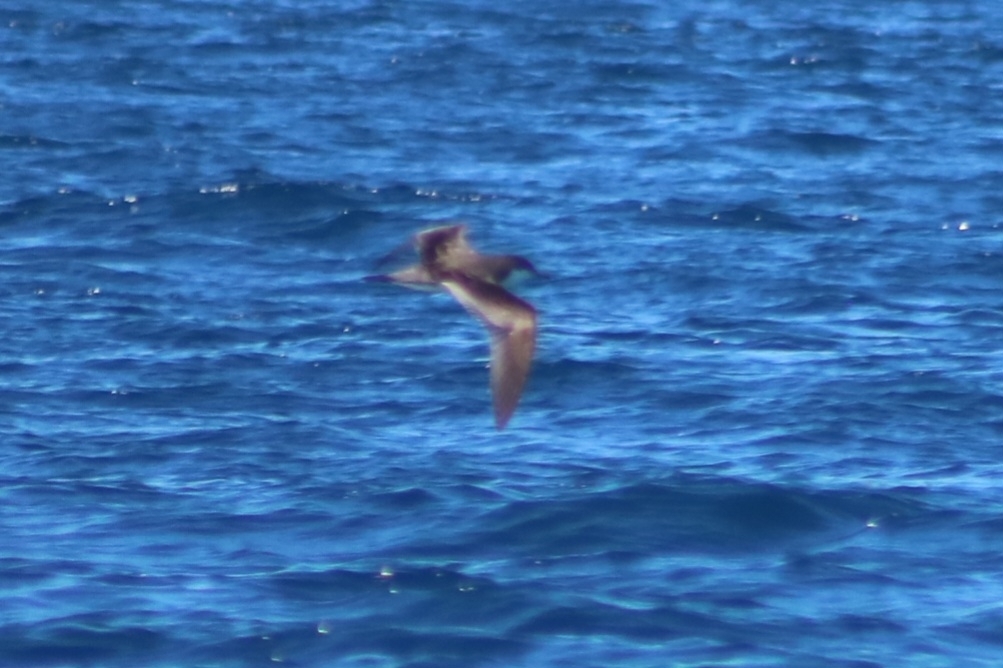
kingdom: Animalia
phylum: Chordata
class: Aves
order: Procellariiformes
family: Procellariidae
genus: Puffinus
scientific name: Puffinus bulleri
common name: Buller's shearwater
